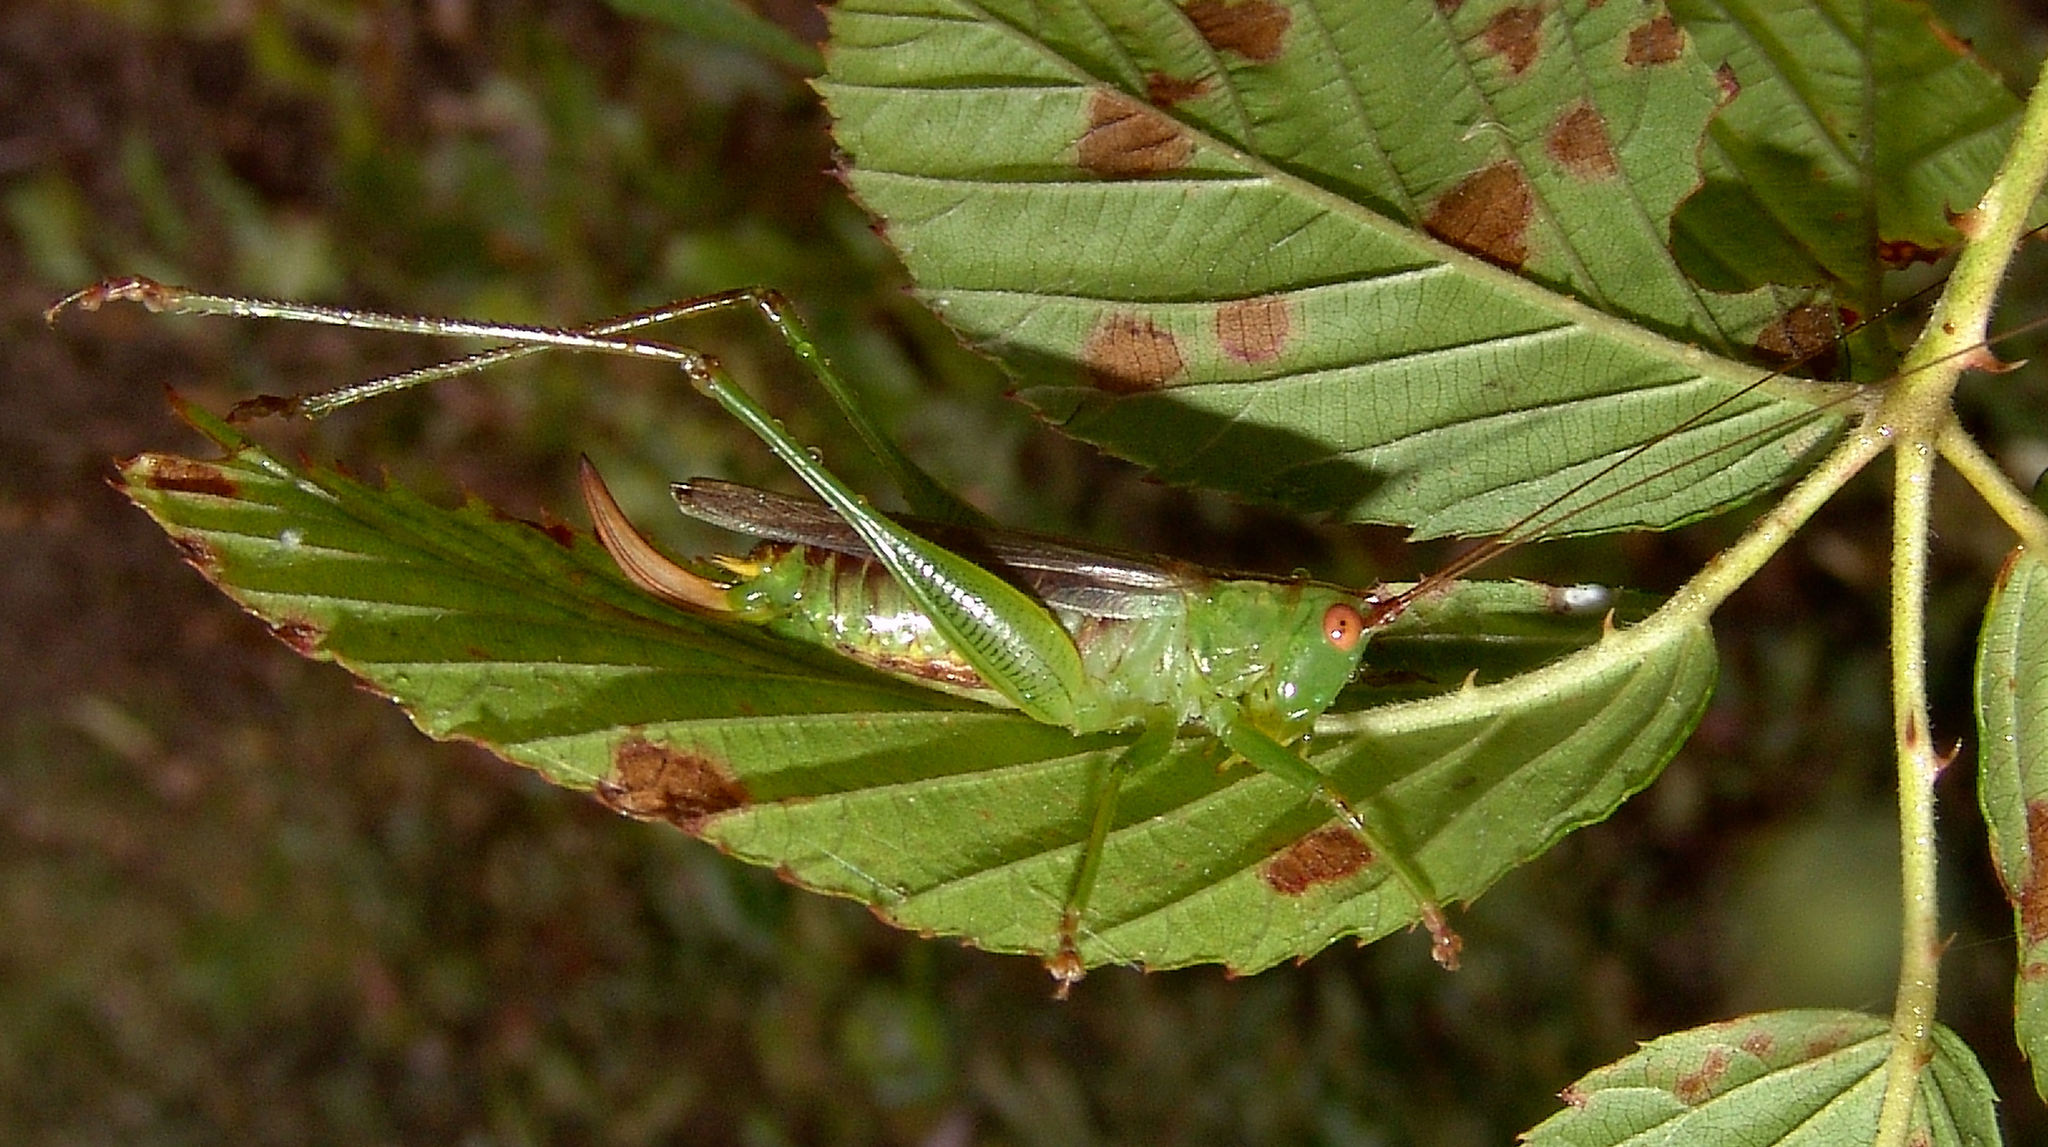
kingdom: Animalia
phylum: Arthropoda
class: Insecta
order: Orthoptera
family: Tettigoniidae
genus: Orchelimum
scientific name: Orchelimum vulgare
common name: Common meadow katydid
